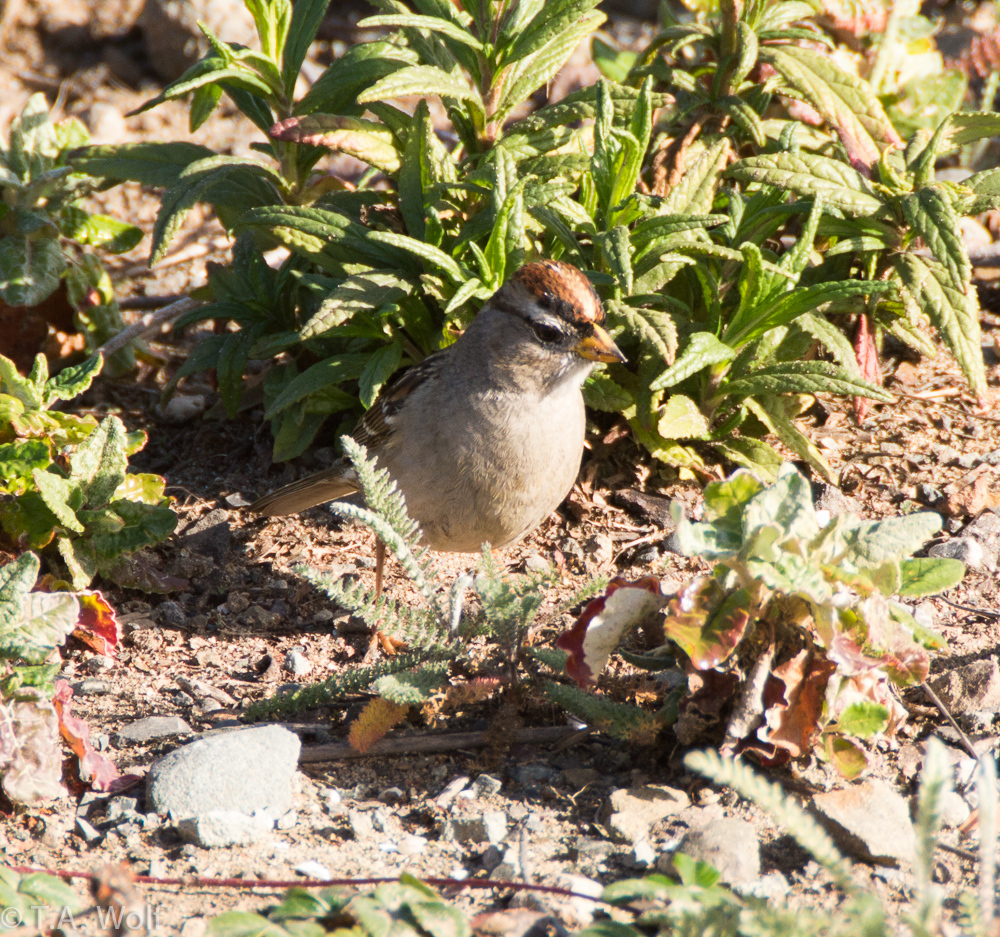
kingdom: Animalia
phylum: Chordata
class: Aves
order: Passeriformes
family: Passerellidae
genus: Zonotrichia
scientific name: Zonotrichia leucophrys
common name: White-crowned sparrow
